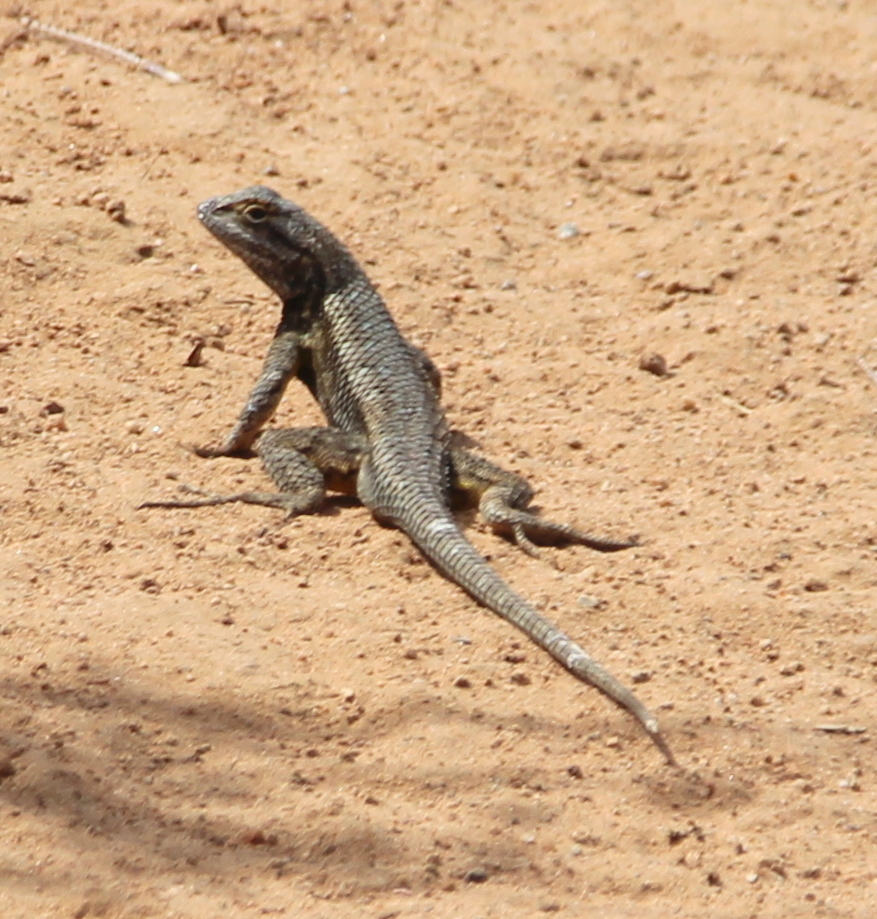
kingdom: Animalia
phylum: Chordata
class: Squamata
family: Phrynosomatidae
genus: Sceloporus
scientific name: Sceloporus occidentalis
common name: Western fence lizard
